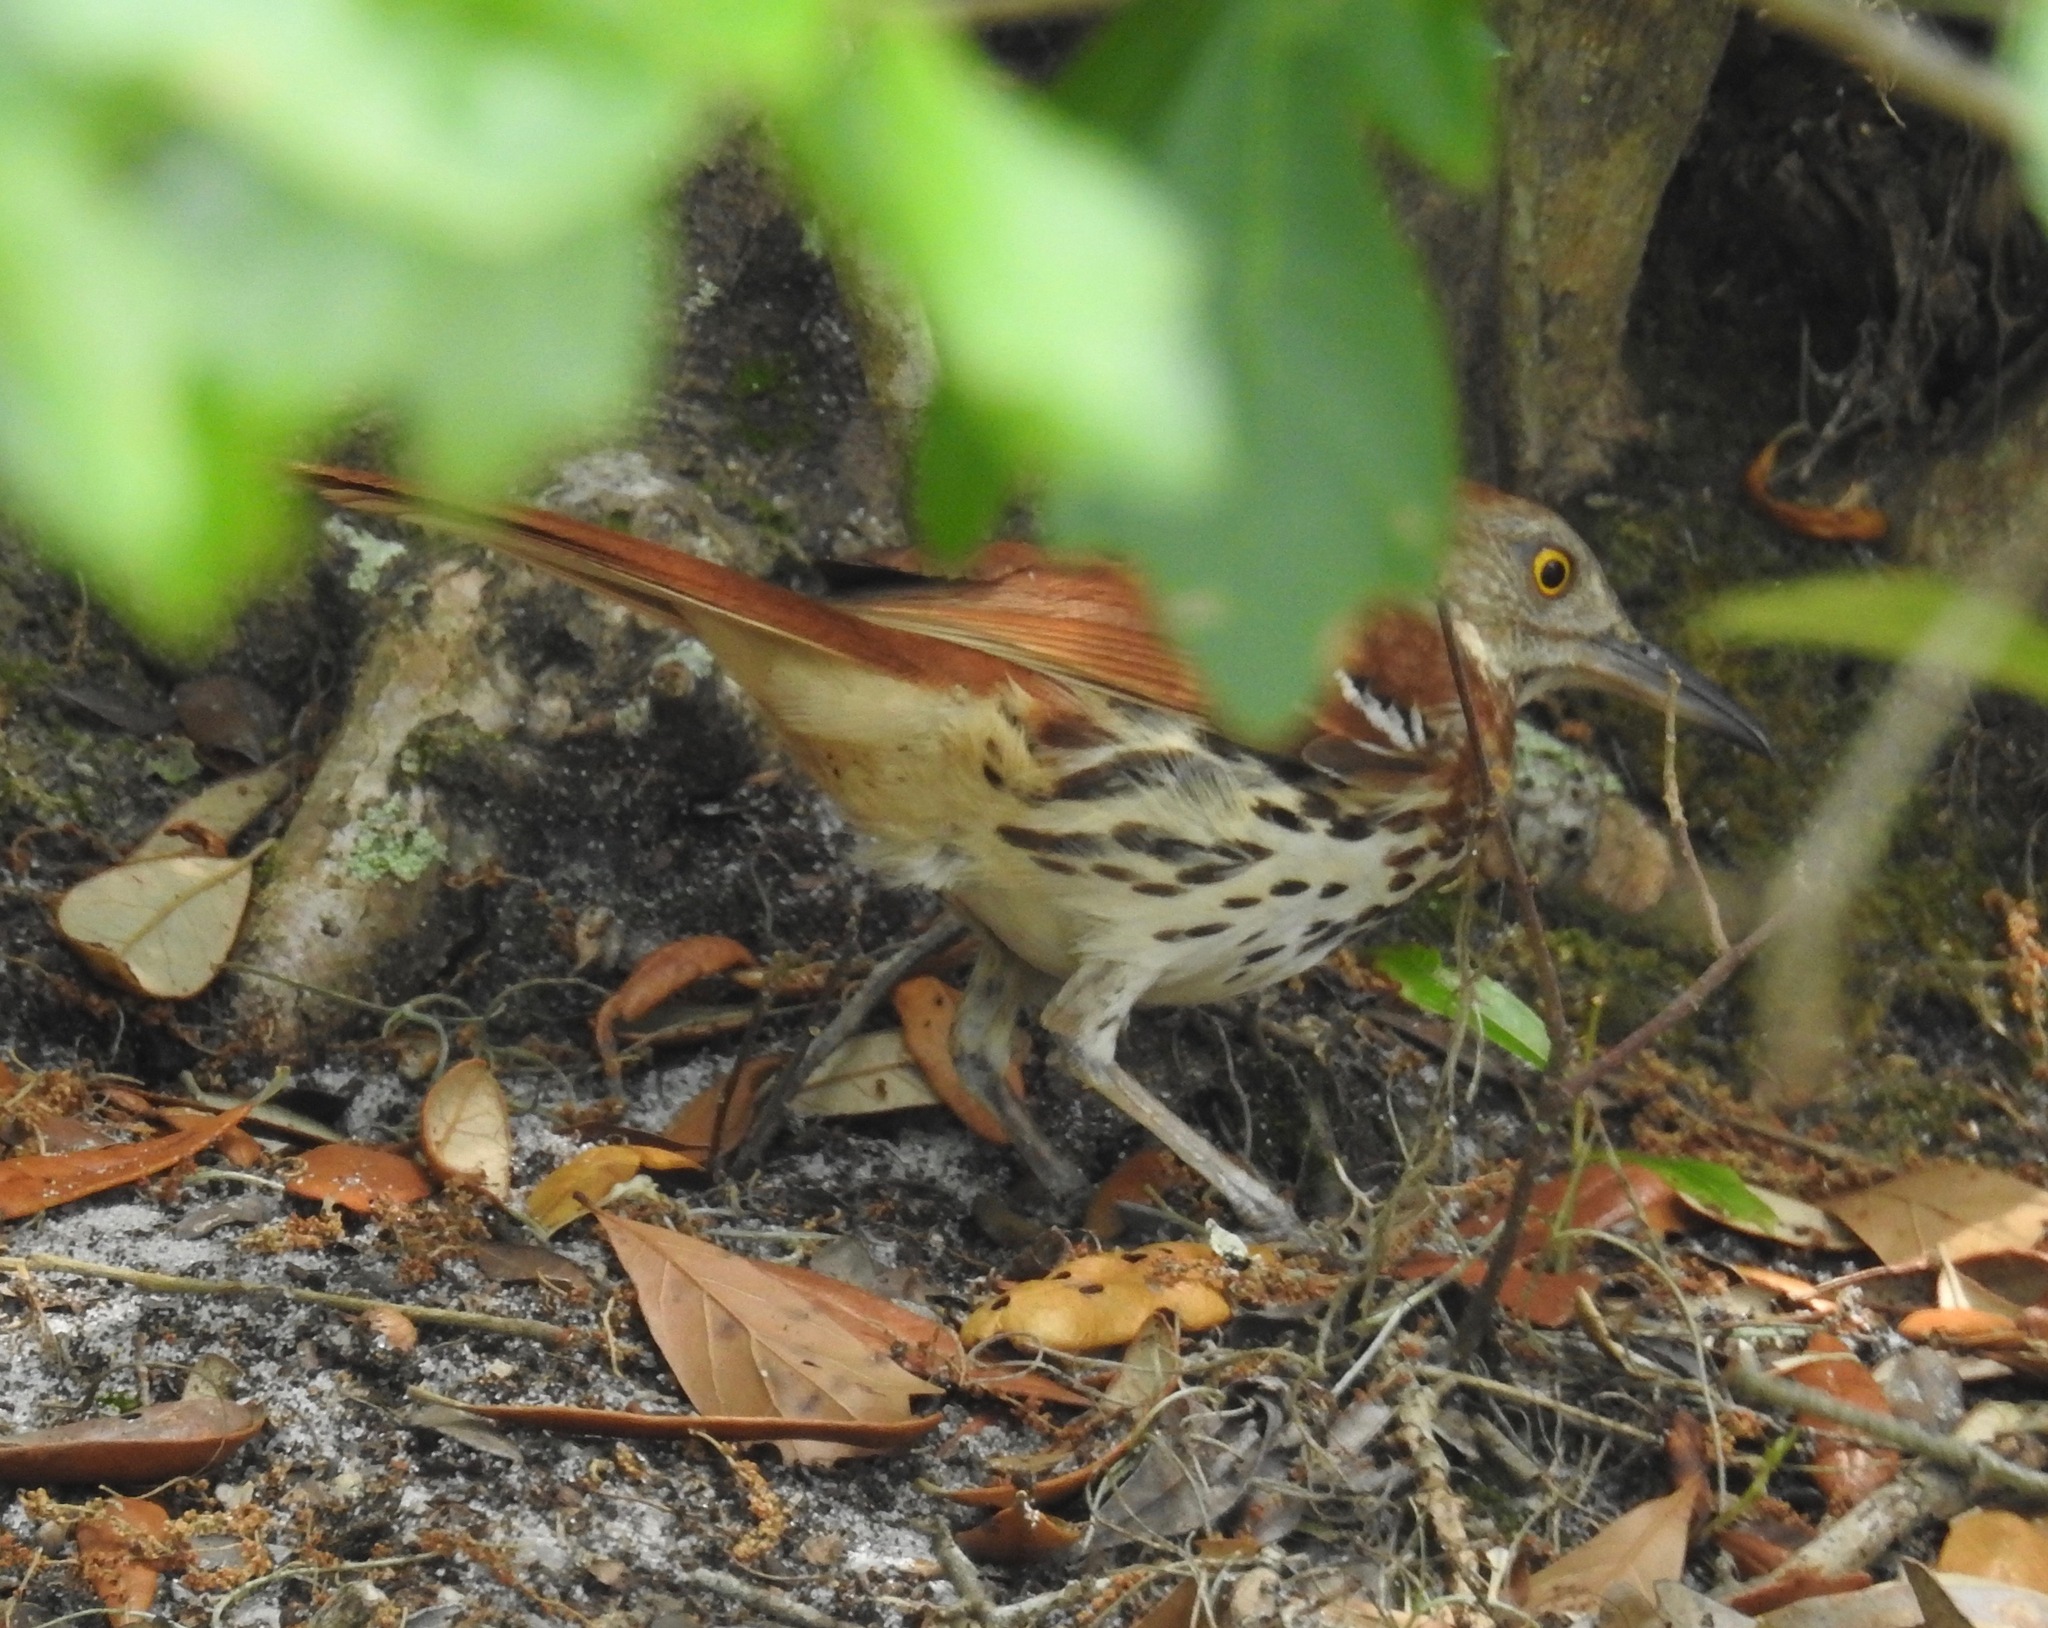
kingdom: Animalia
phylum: Chordata
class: Aves
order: Passeriformes
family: Mimidae
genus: Toxostoma
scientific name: Toxostoma rufum
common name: Brown thrasher
